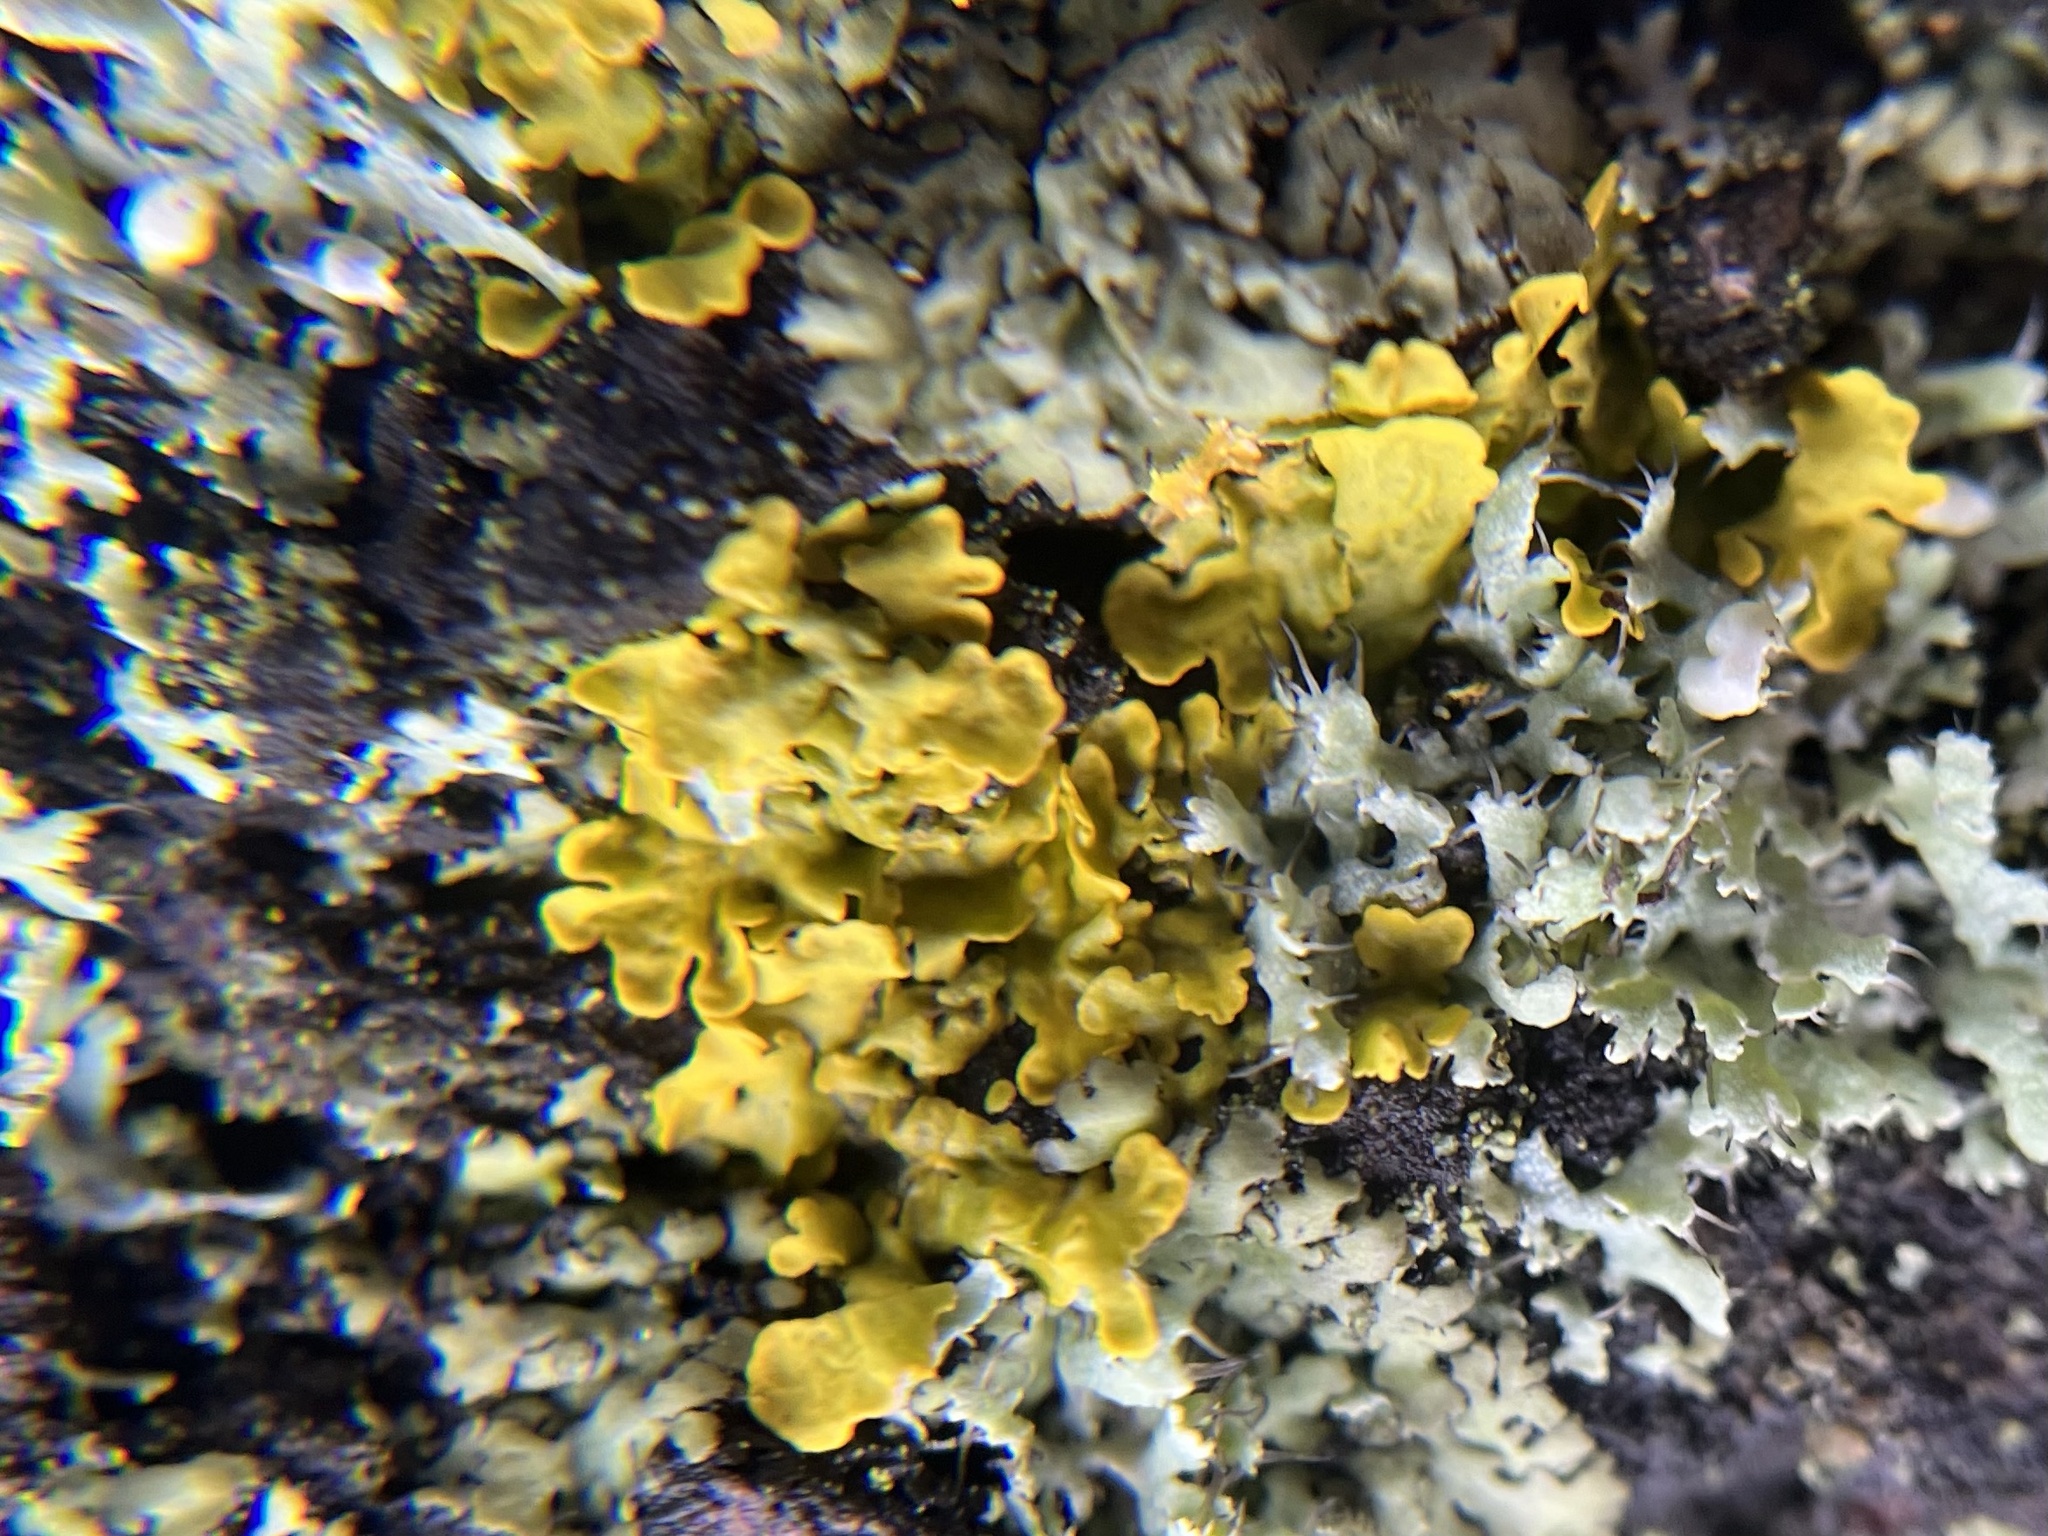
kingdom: Fungi
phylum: Ascomycota
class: Lecanoromycetes
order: Teloschistales
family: Teloschistaceae
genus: Xanthoria
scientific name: Xanthoria parietina
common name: Common orange lichen
